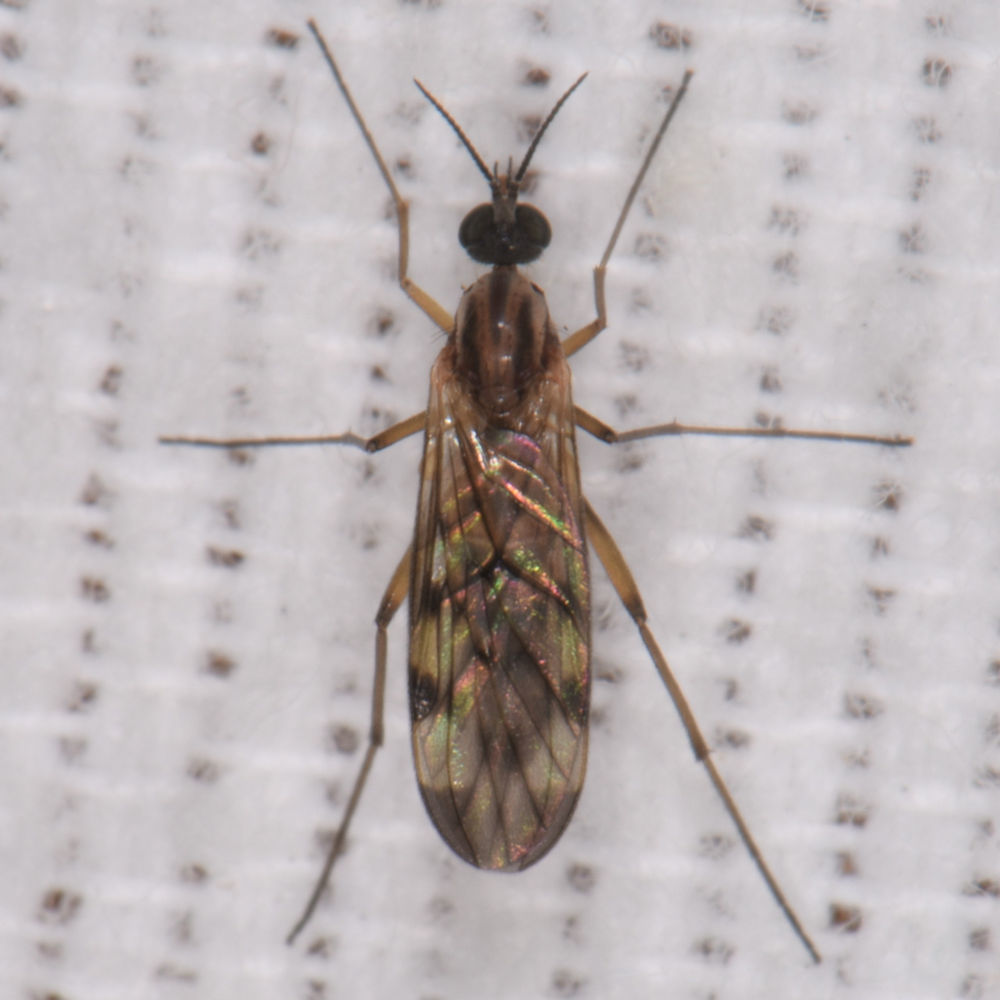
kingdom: Animalia
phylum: Arthropoda
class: Insecta
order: Diptera
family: Anisopodidae
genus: Sylvicola
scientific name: Sylvicola fenestralis
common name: Window gnat
